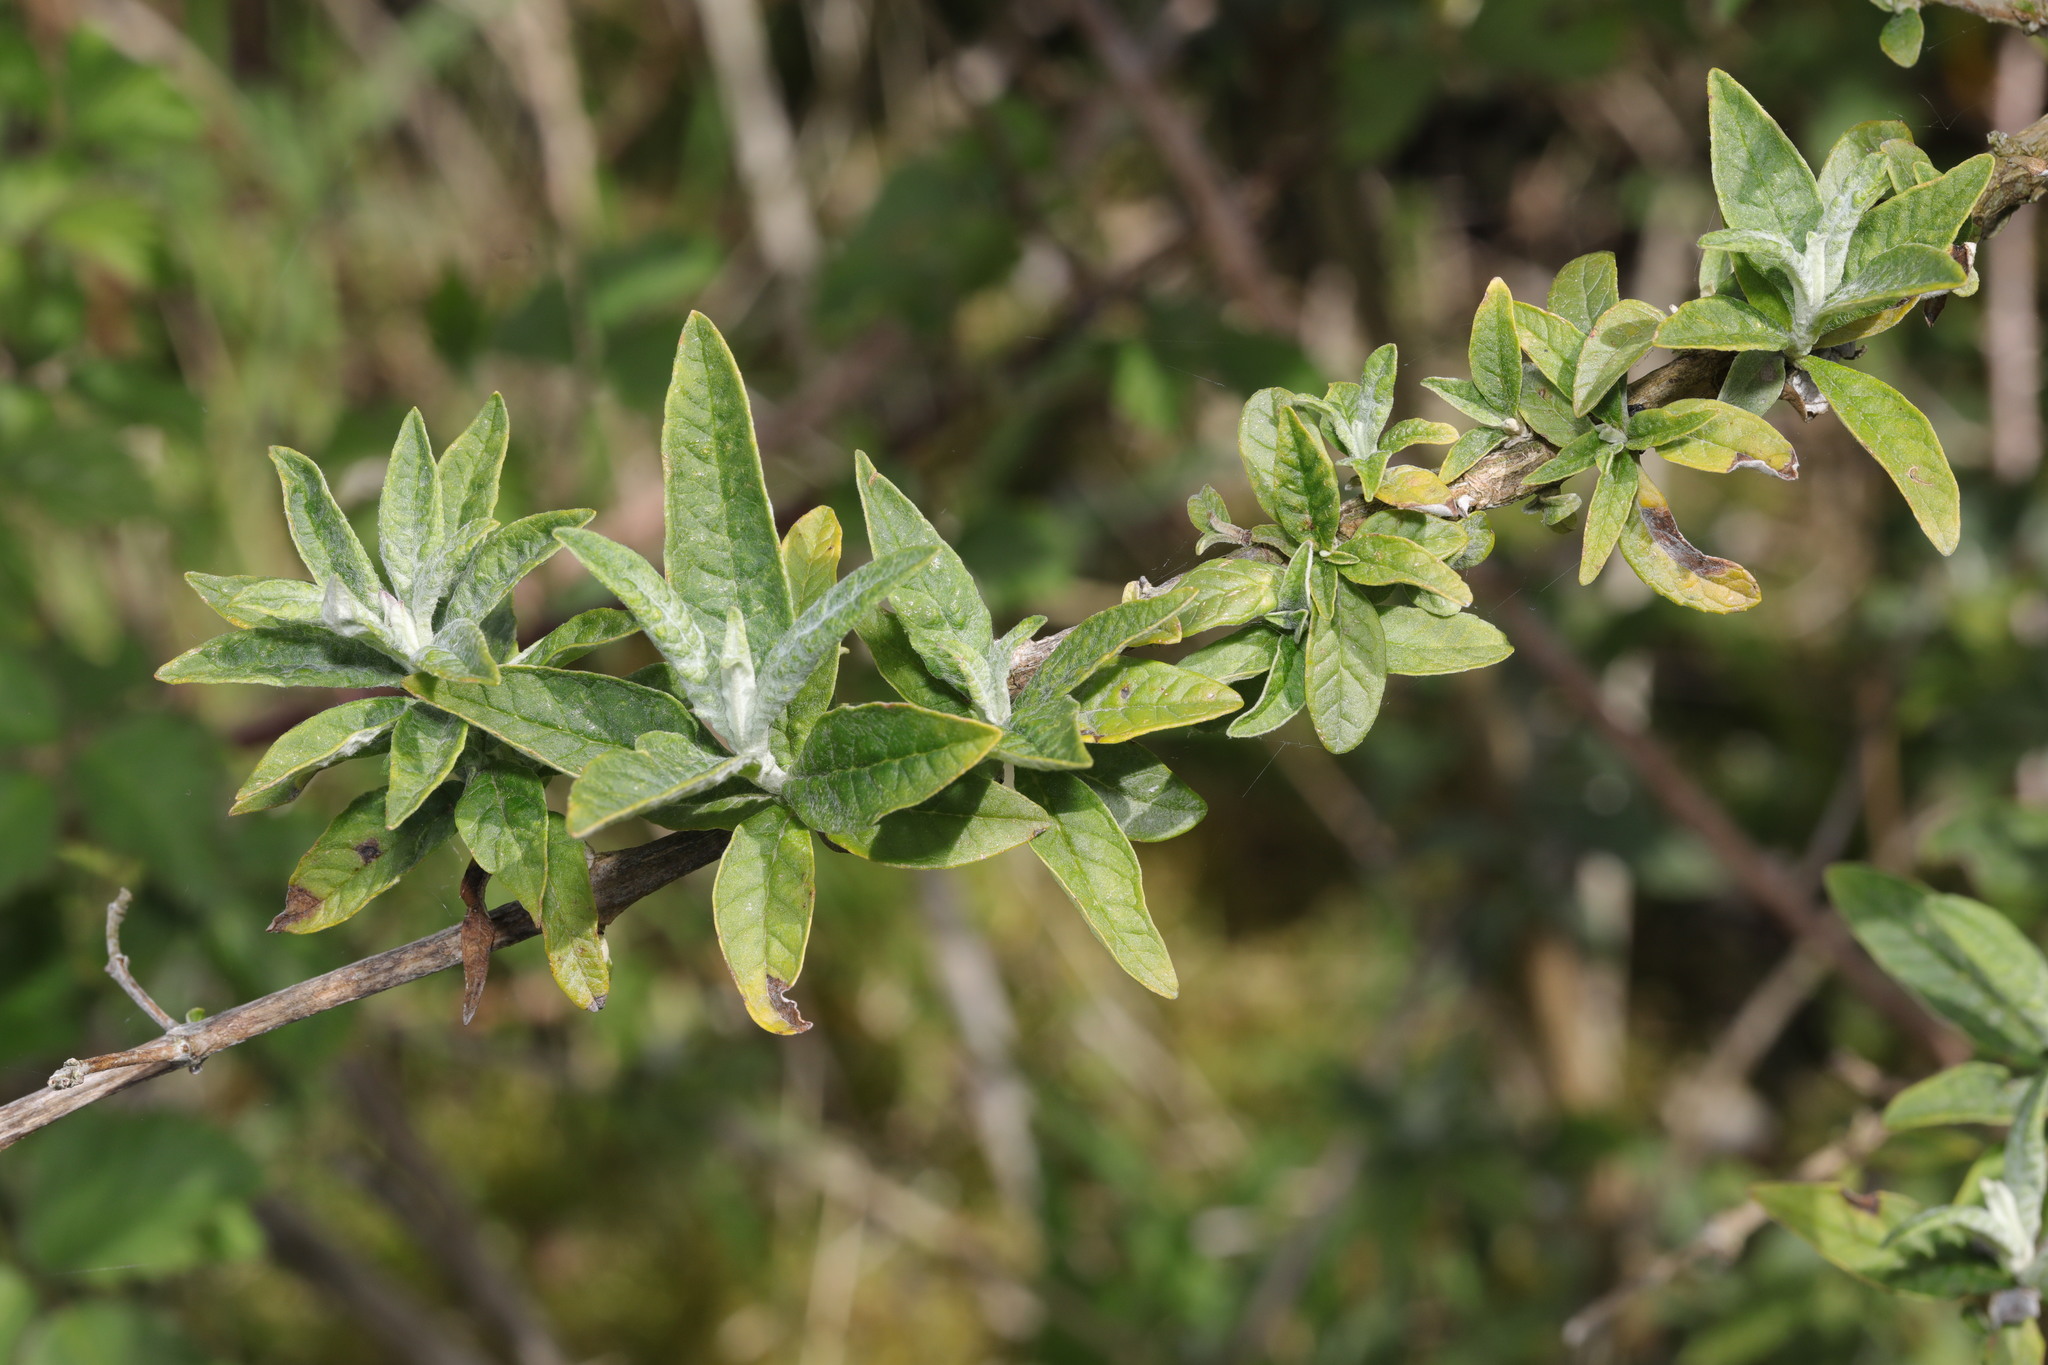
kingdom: Plantae
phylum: Tracheophyta
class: Magnoliopsida
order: Lamiales
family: Scrophulariaceae
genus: Buddleja
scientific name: Buddleja davidii
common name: Butterfly-bush
